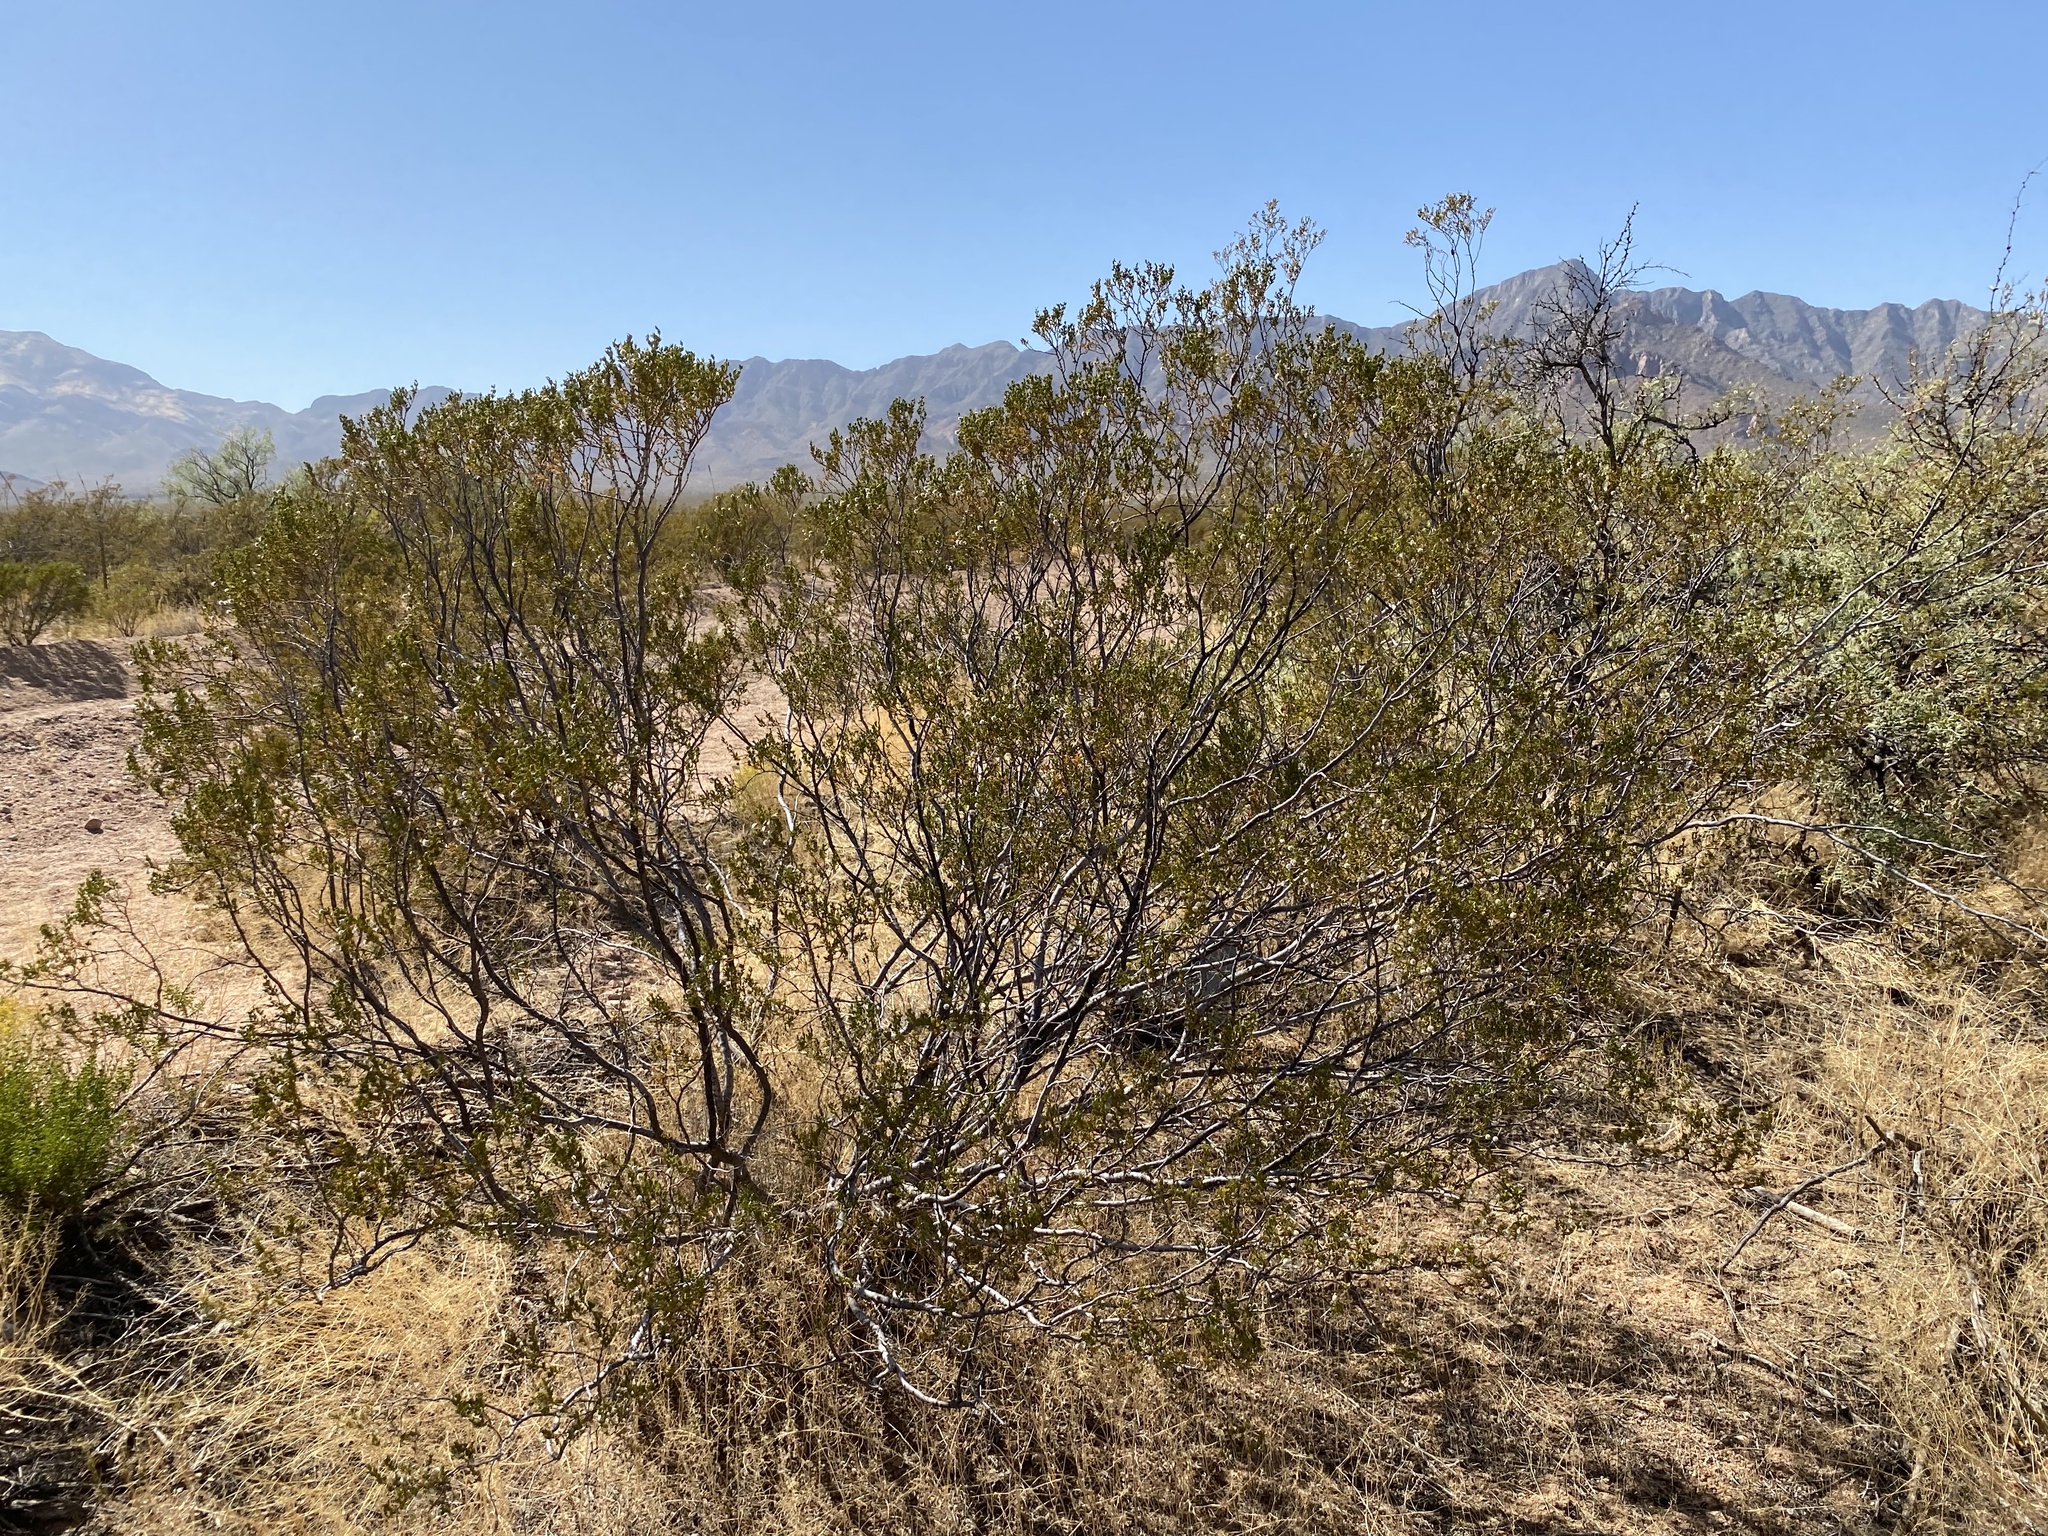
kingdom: Plantae
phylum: Tracheophyta
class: Magnoliopsida
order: Zygophyllales
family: Zygophyllaceae
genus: Larrea
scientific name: Larrea tridentata
